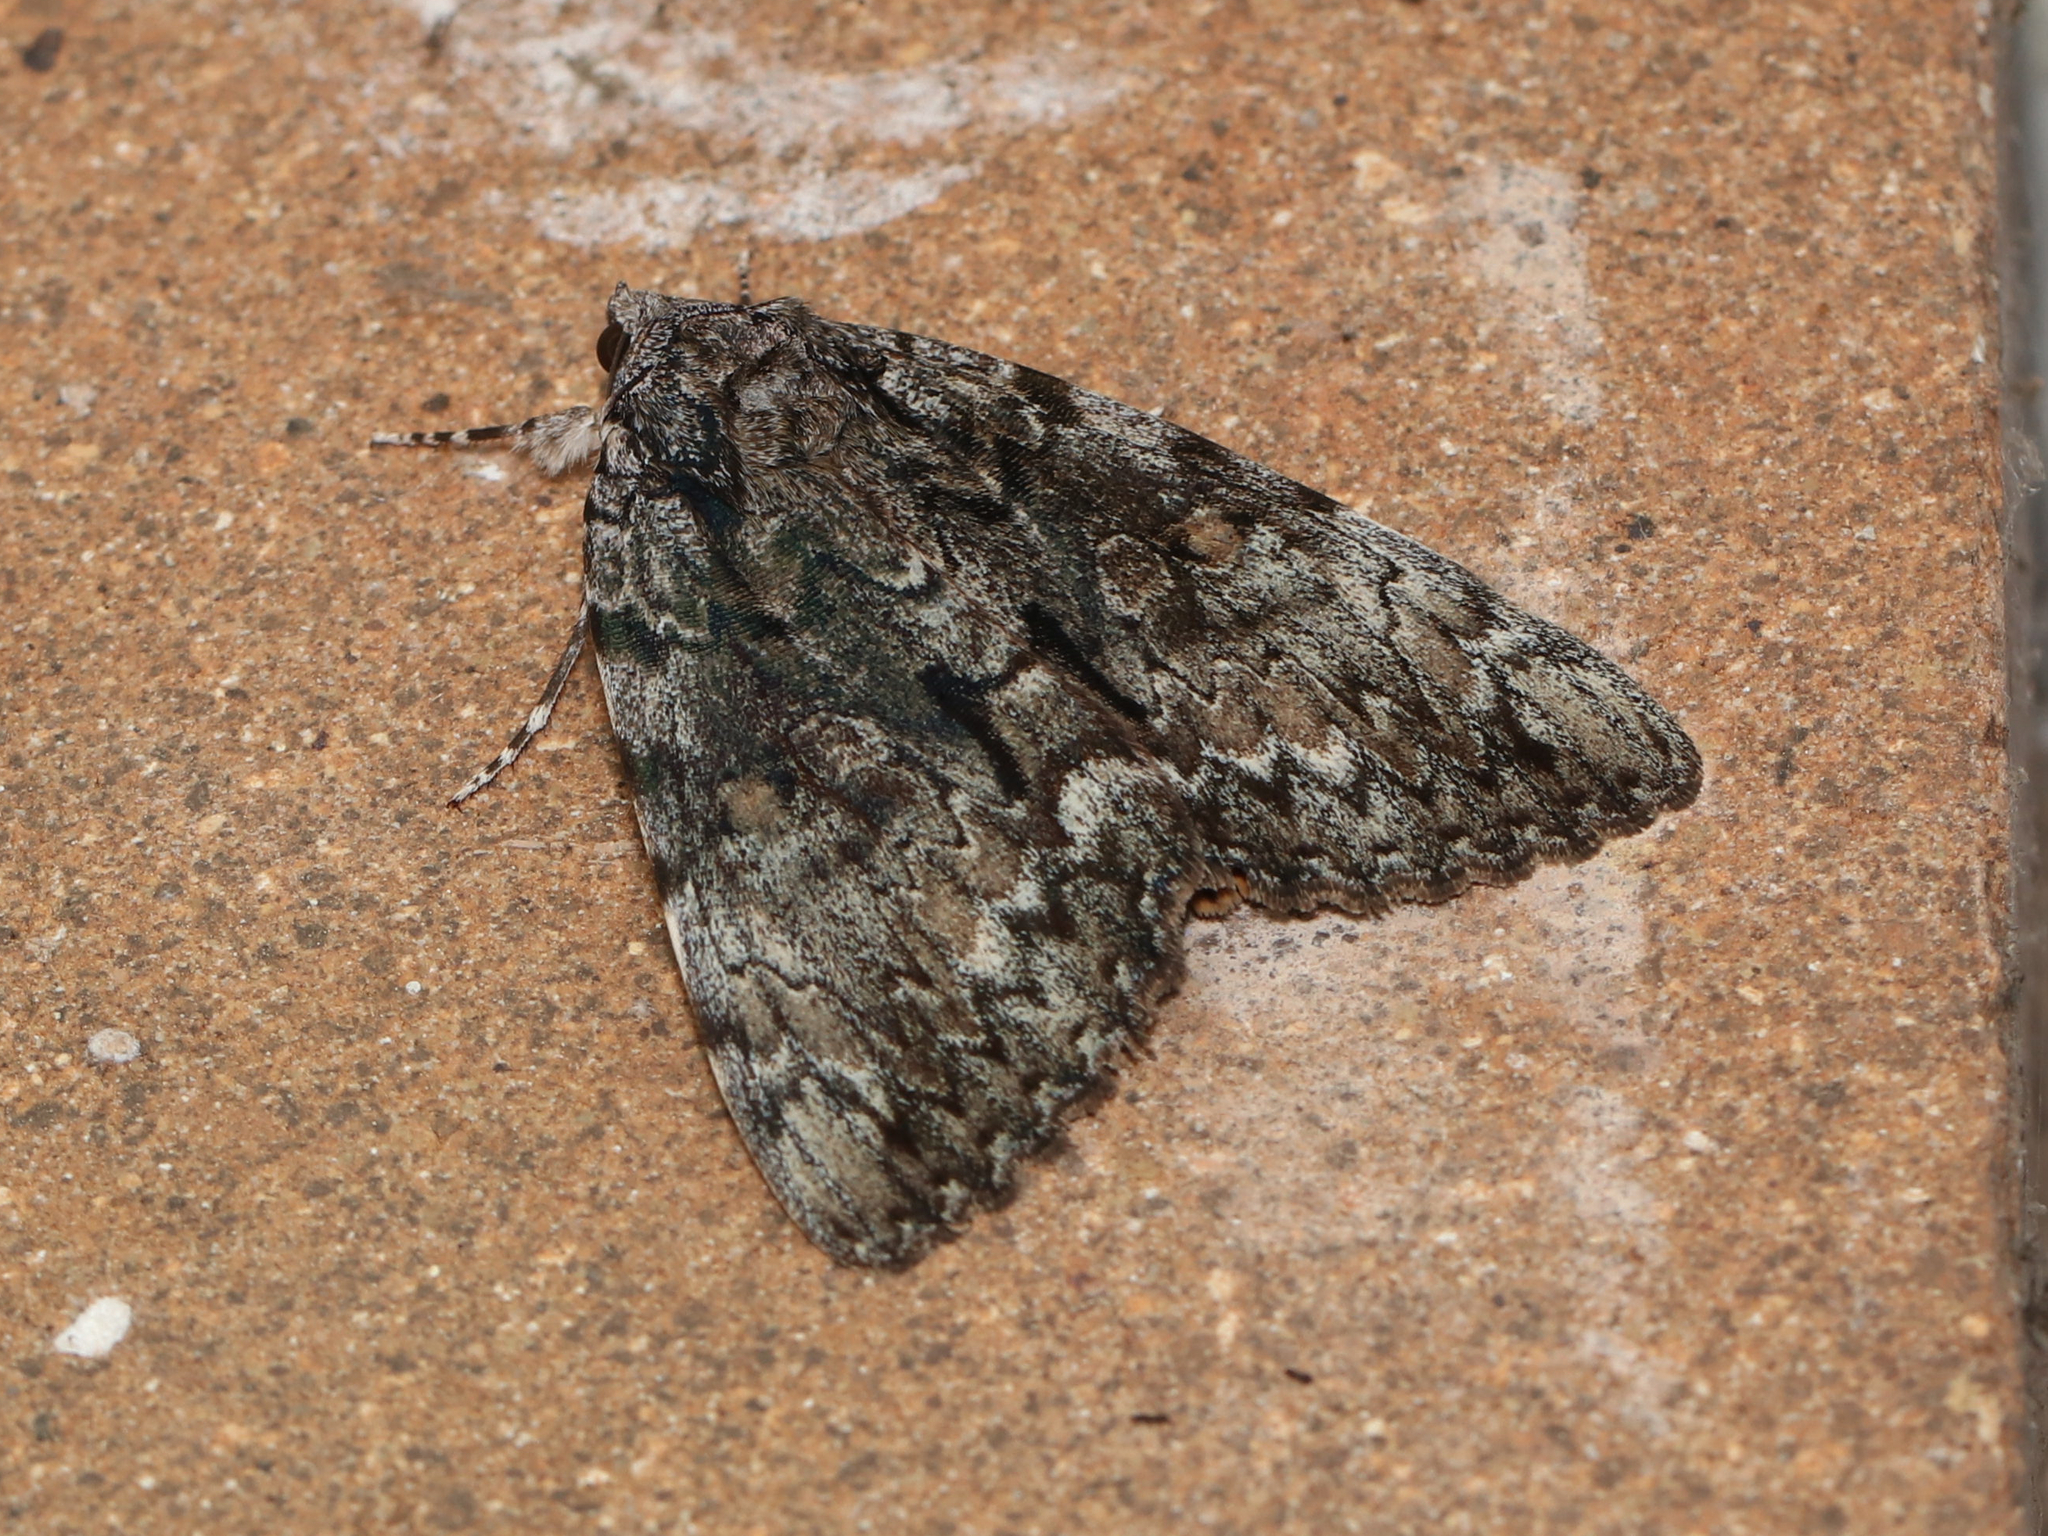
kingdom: Animalia
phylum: Arthropoda
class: Insecta
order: Lepidoptera
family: Erebidae
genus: Catocala
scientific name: Catocala palaeogama
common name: Oldwife underwing
